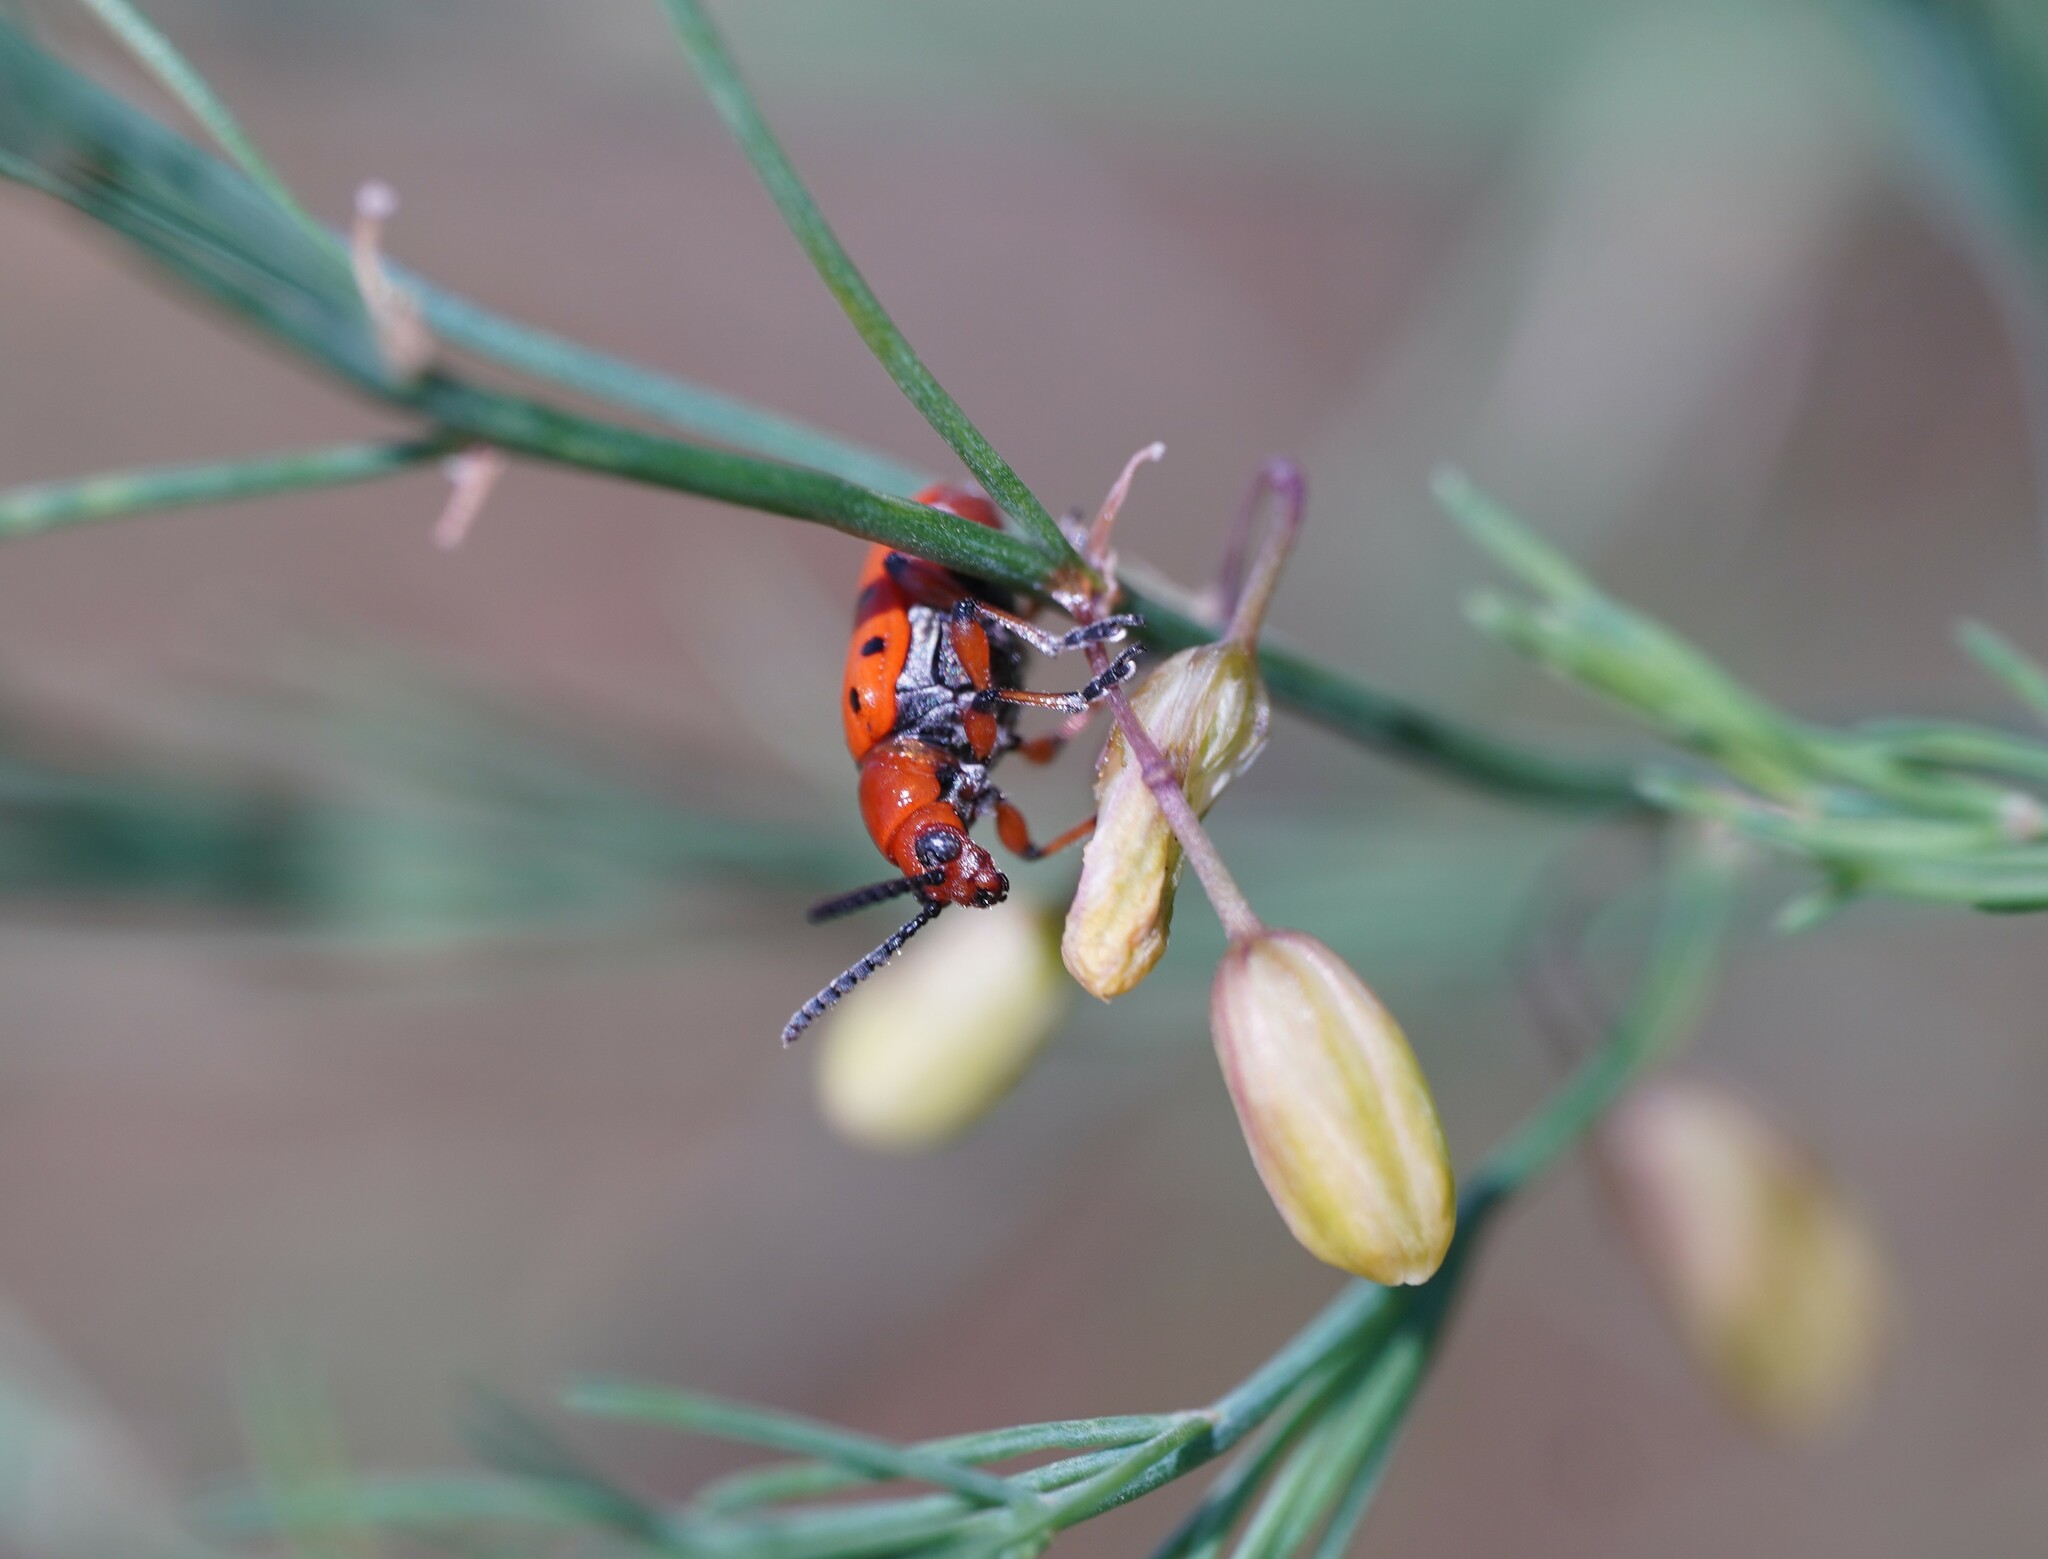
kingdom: Animalia
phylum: Arthropoda
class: Insecta
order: Coleoptera
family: Chrysomelidae
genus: Crioceris
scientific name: Crioceris duodecimpunctata
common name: Twelve-spotted asparagus beetle
